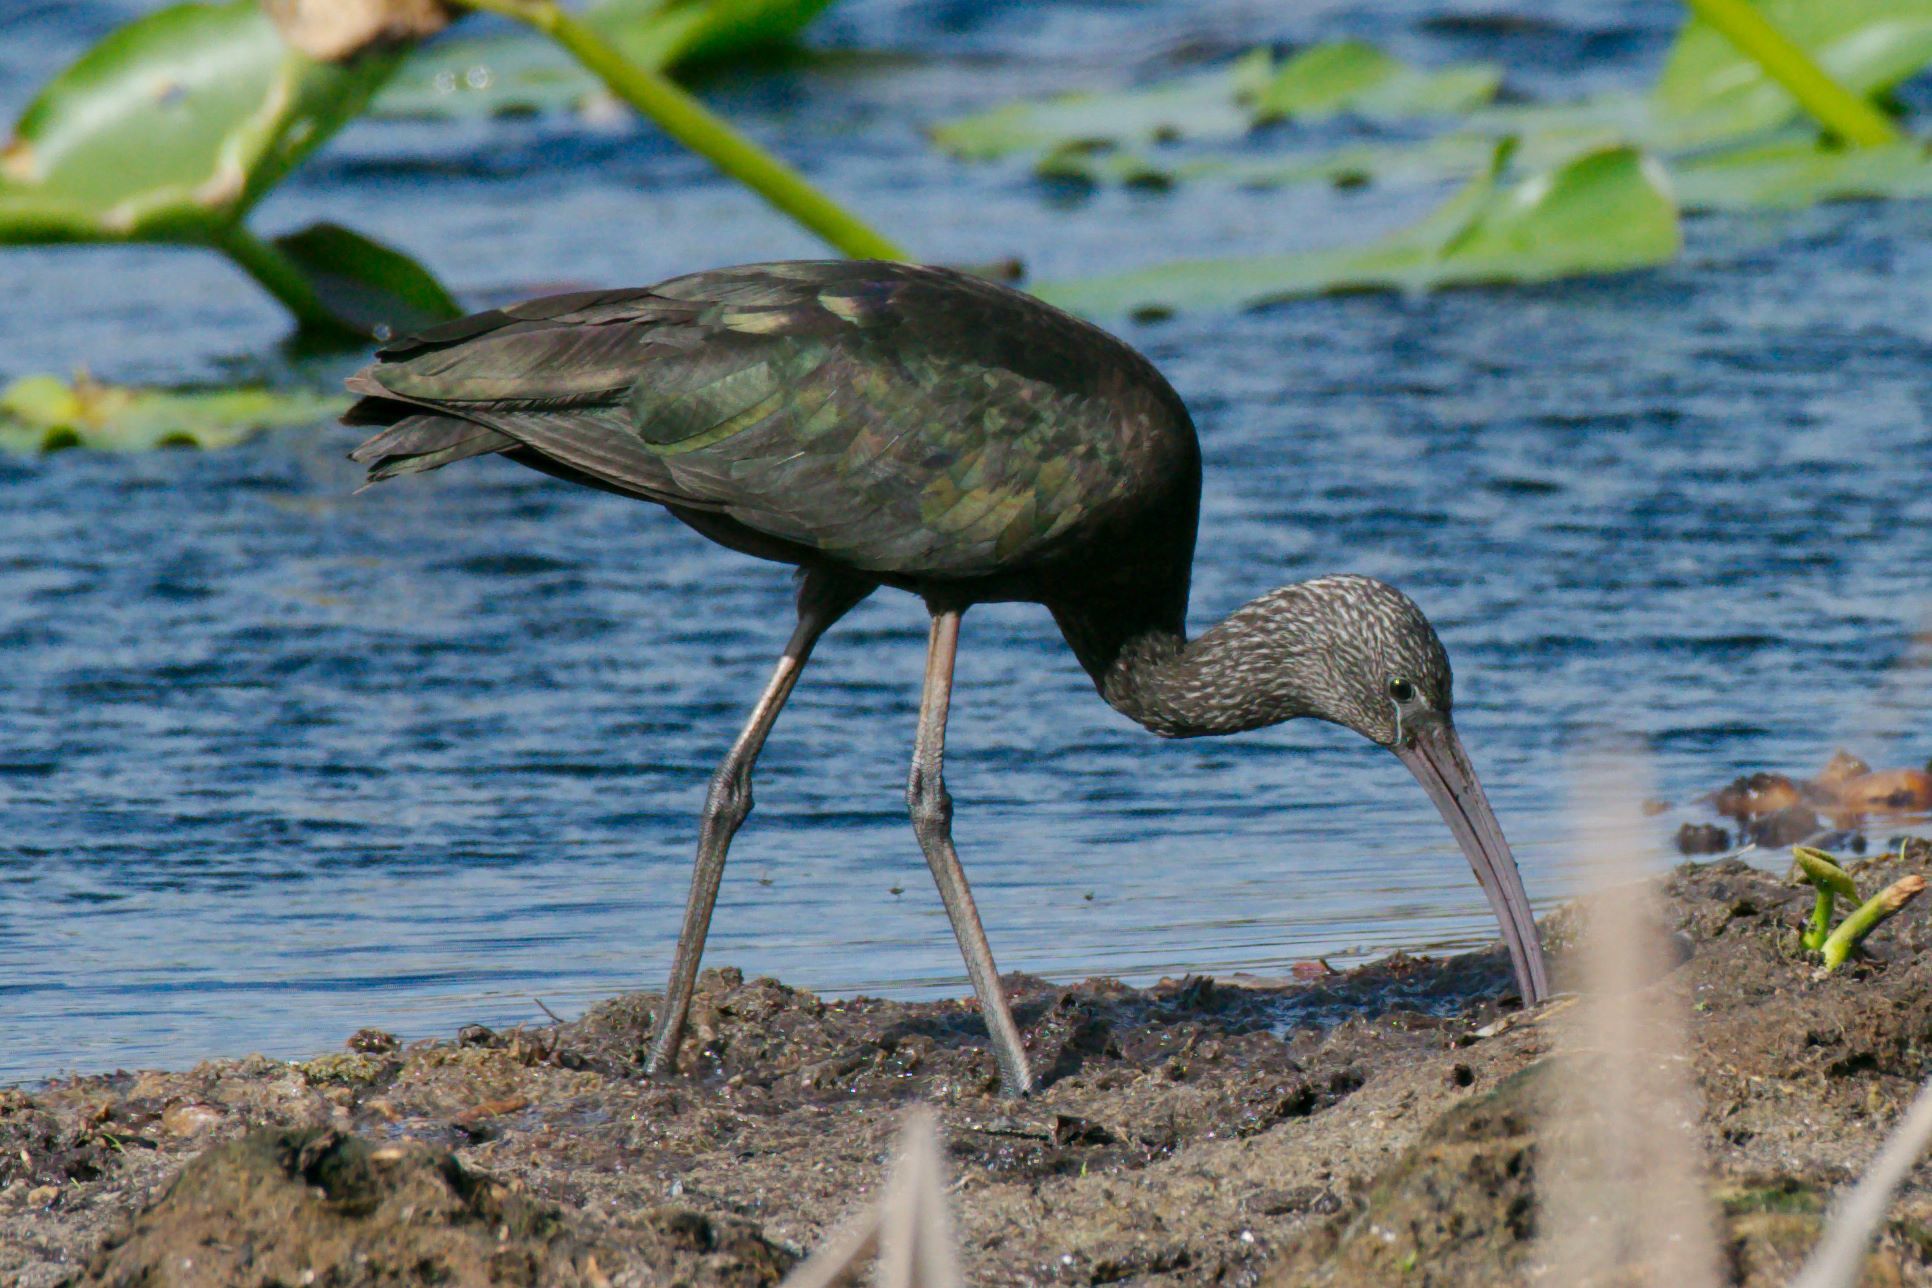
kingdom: Animalia
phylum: Chordata
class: Aves
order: Pelecaniformes
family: Threskiornithidae
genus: Plegadis
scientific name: Plegadis falcinellus
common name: Glossy ibis
